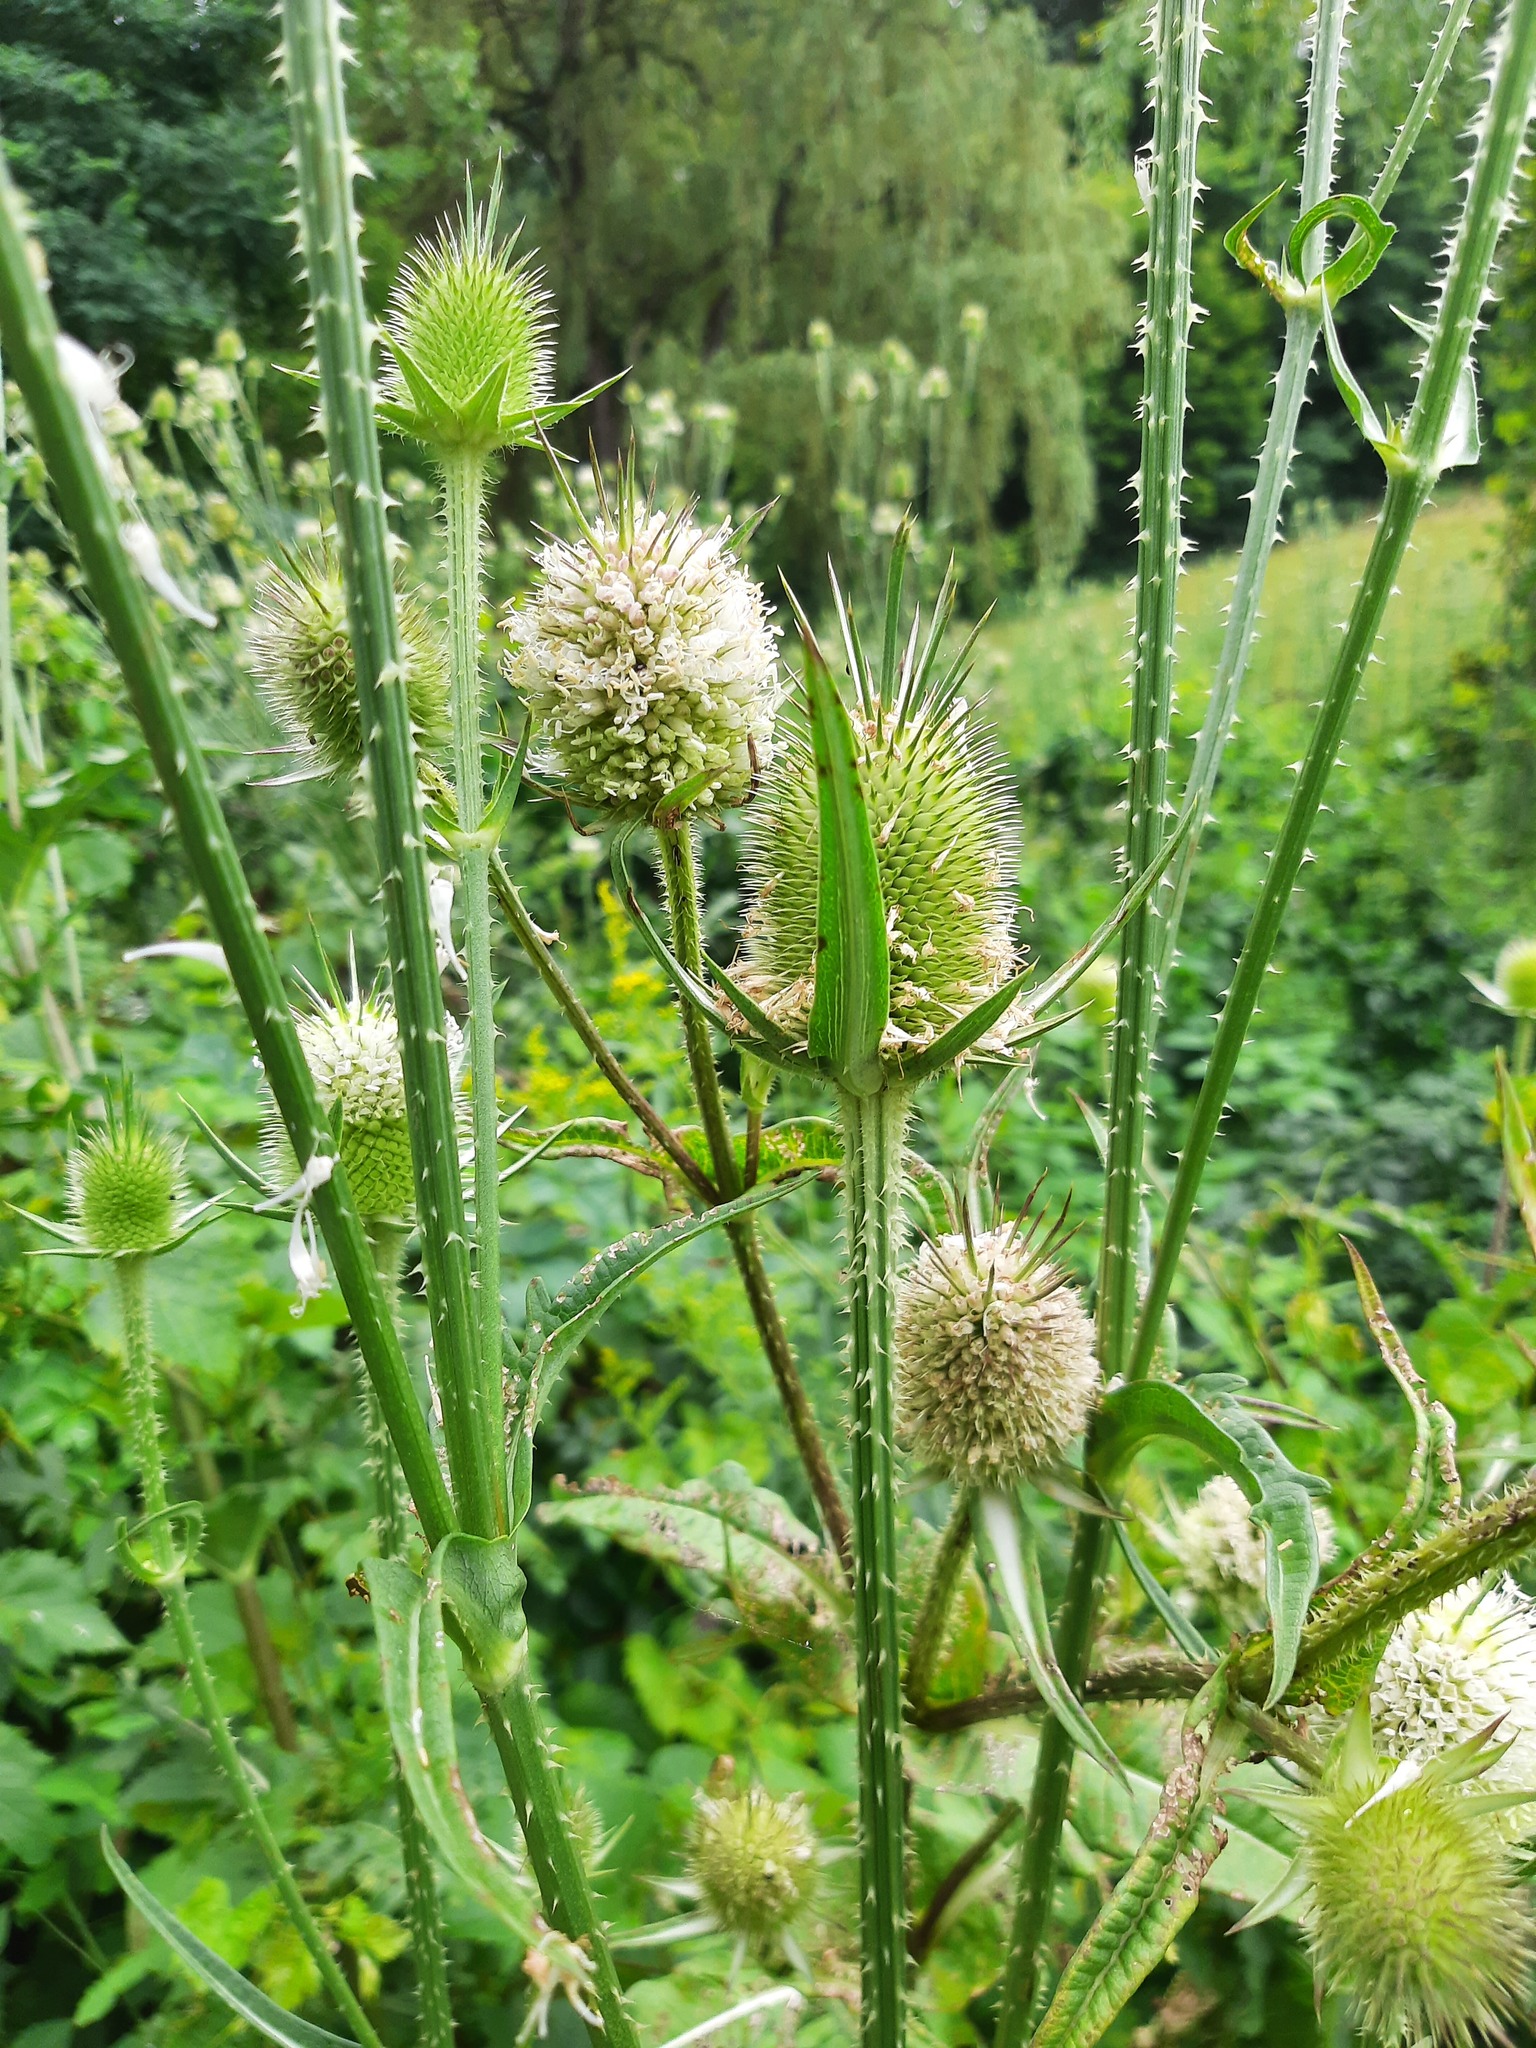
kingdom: Plantae
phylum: Tracheophyta
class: Magnoliopsida
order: Dipsacales
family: Caprifoliaceae
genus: Dipsacus
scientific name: Dipsacus laciniatus
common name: Cut-leaved teasel
